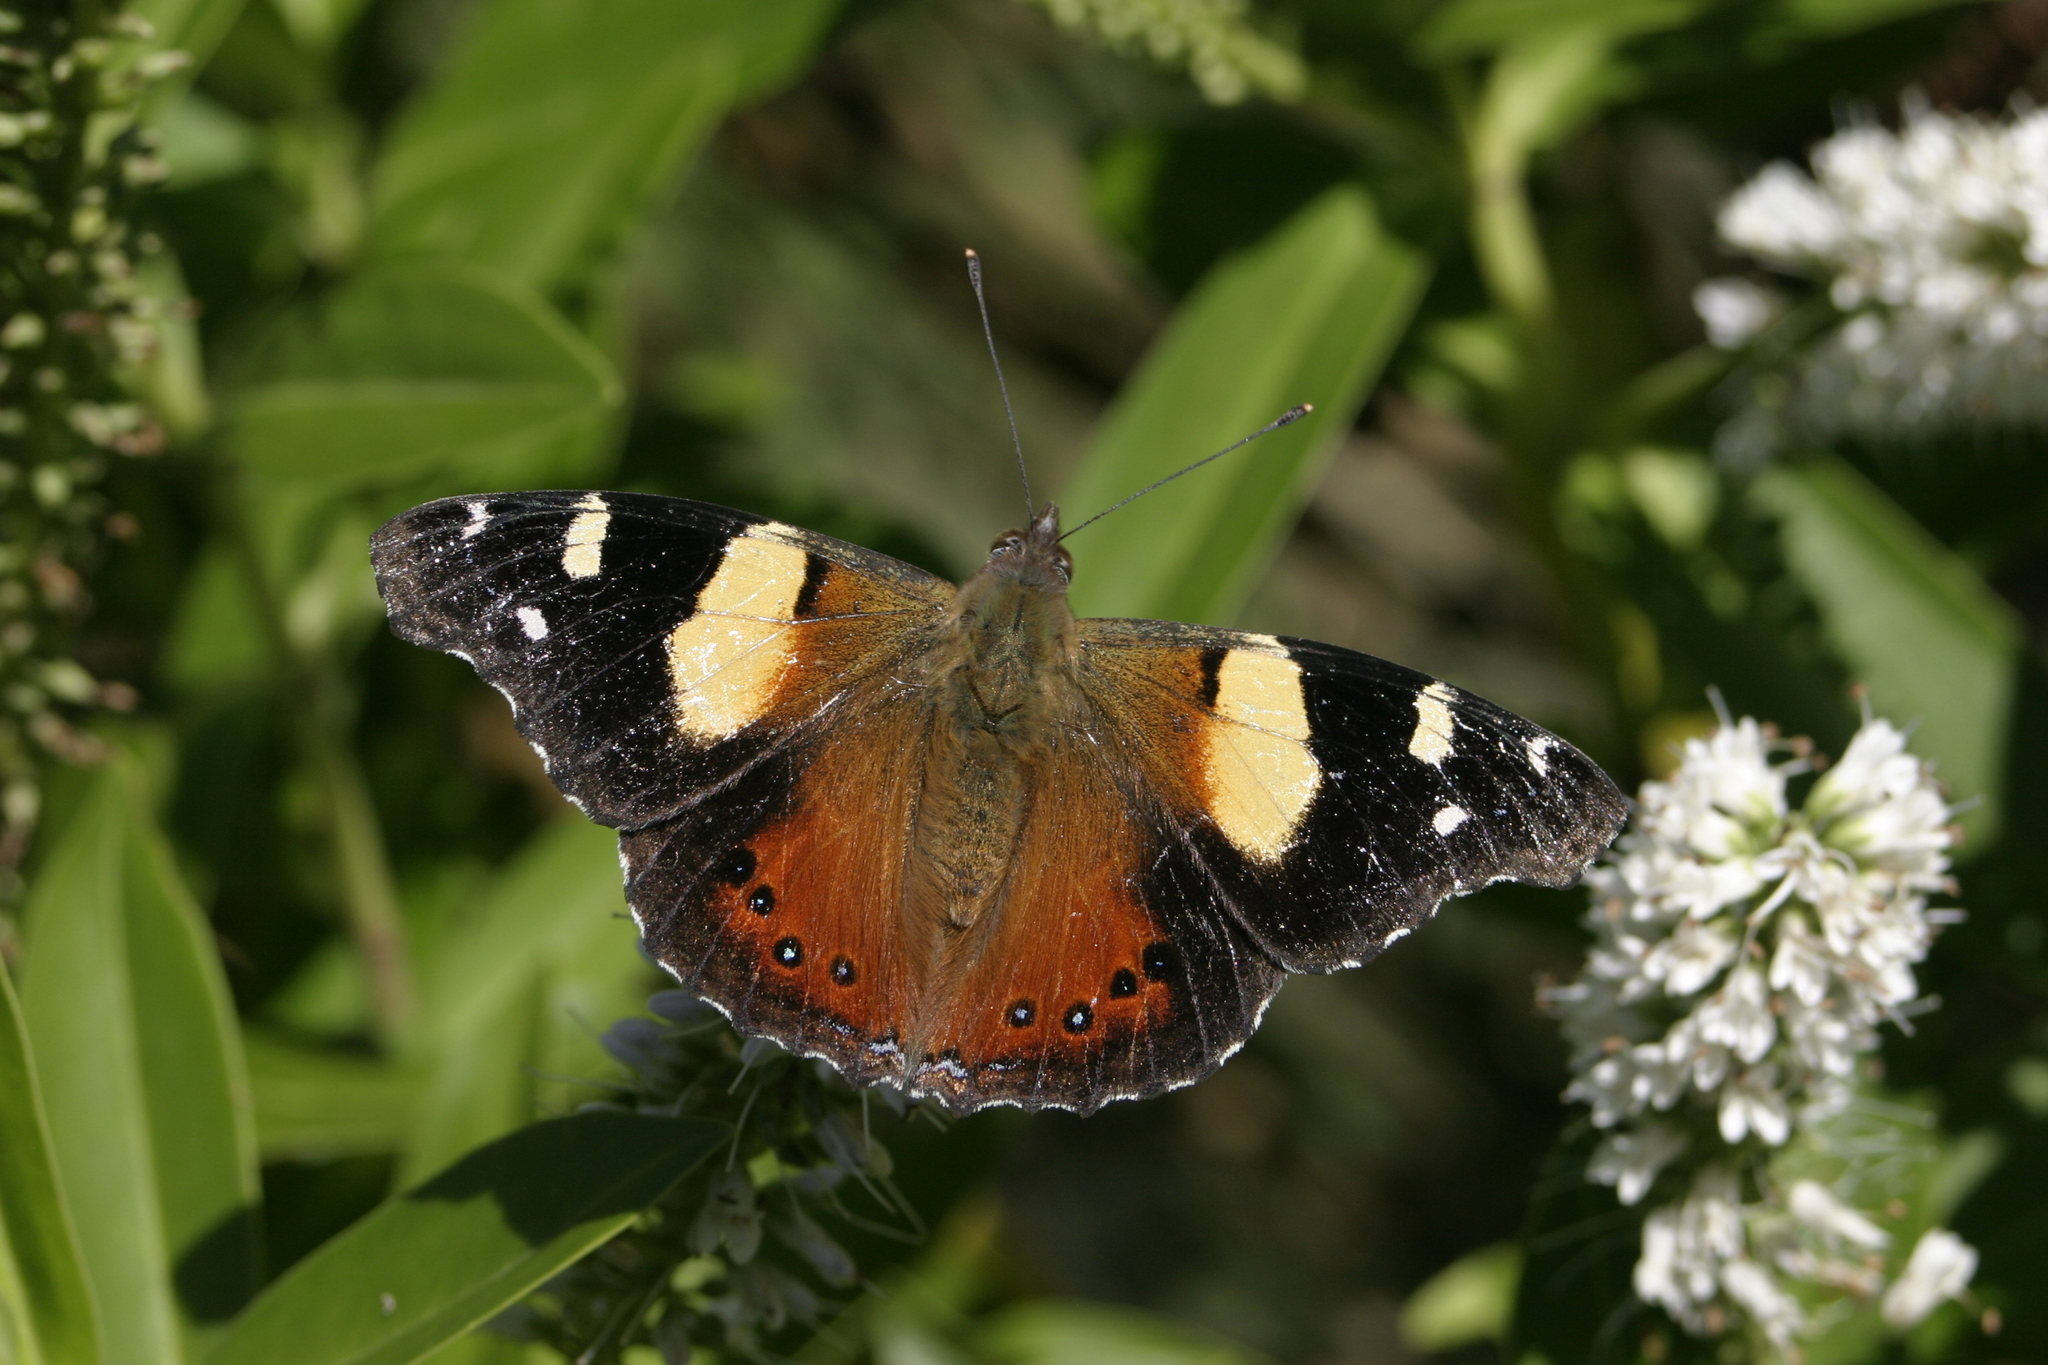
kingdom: Animalia
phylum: Arthropoda
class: Insecta
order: Lepidoptera
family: Nymphalidae
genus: Vanessa
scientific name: Vanessa itea
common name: Yellow admiral
